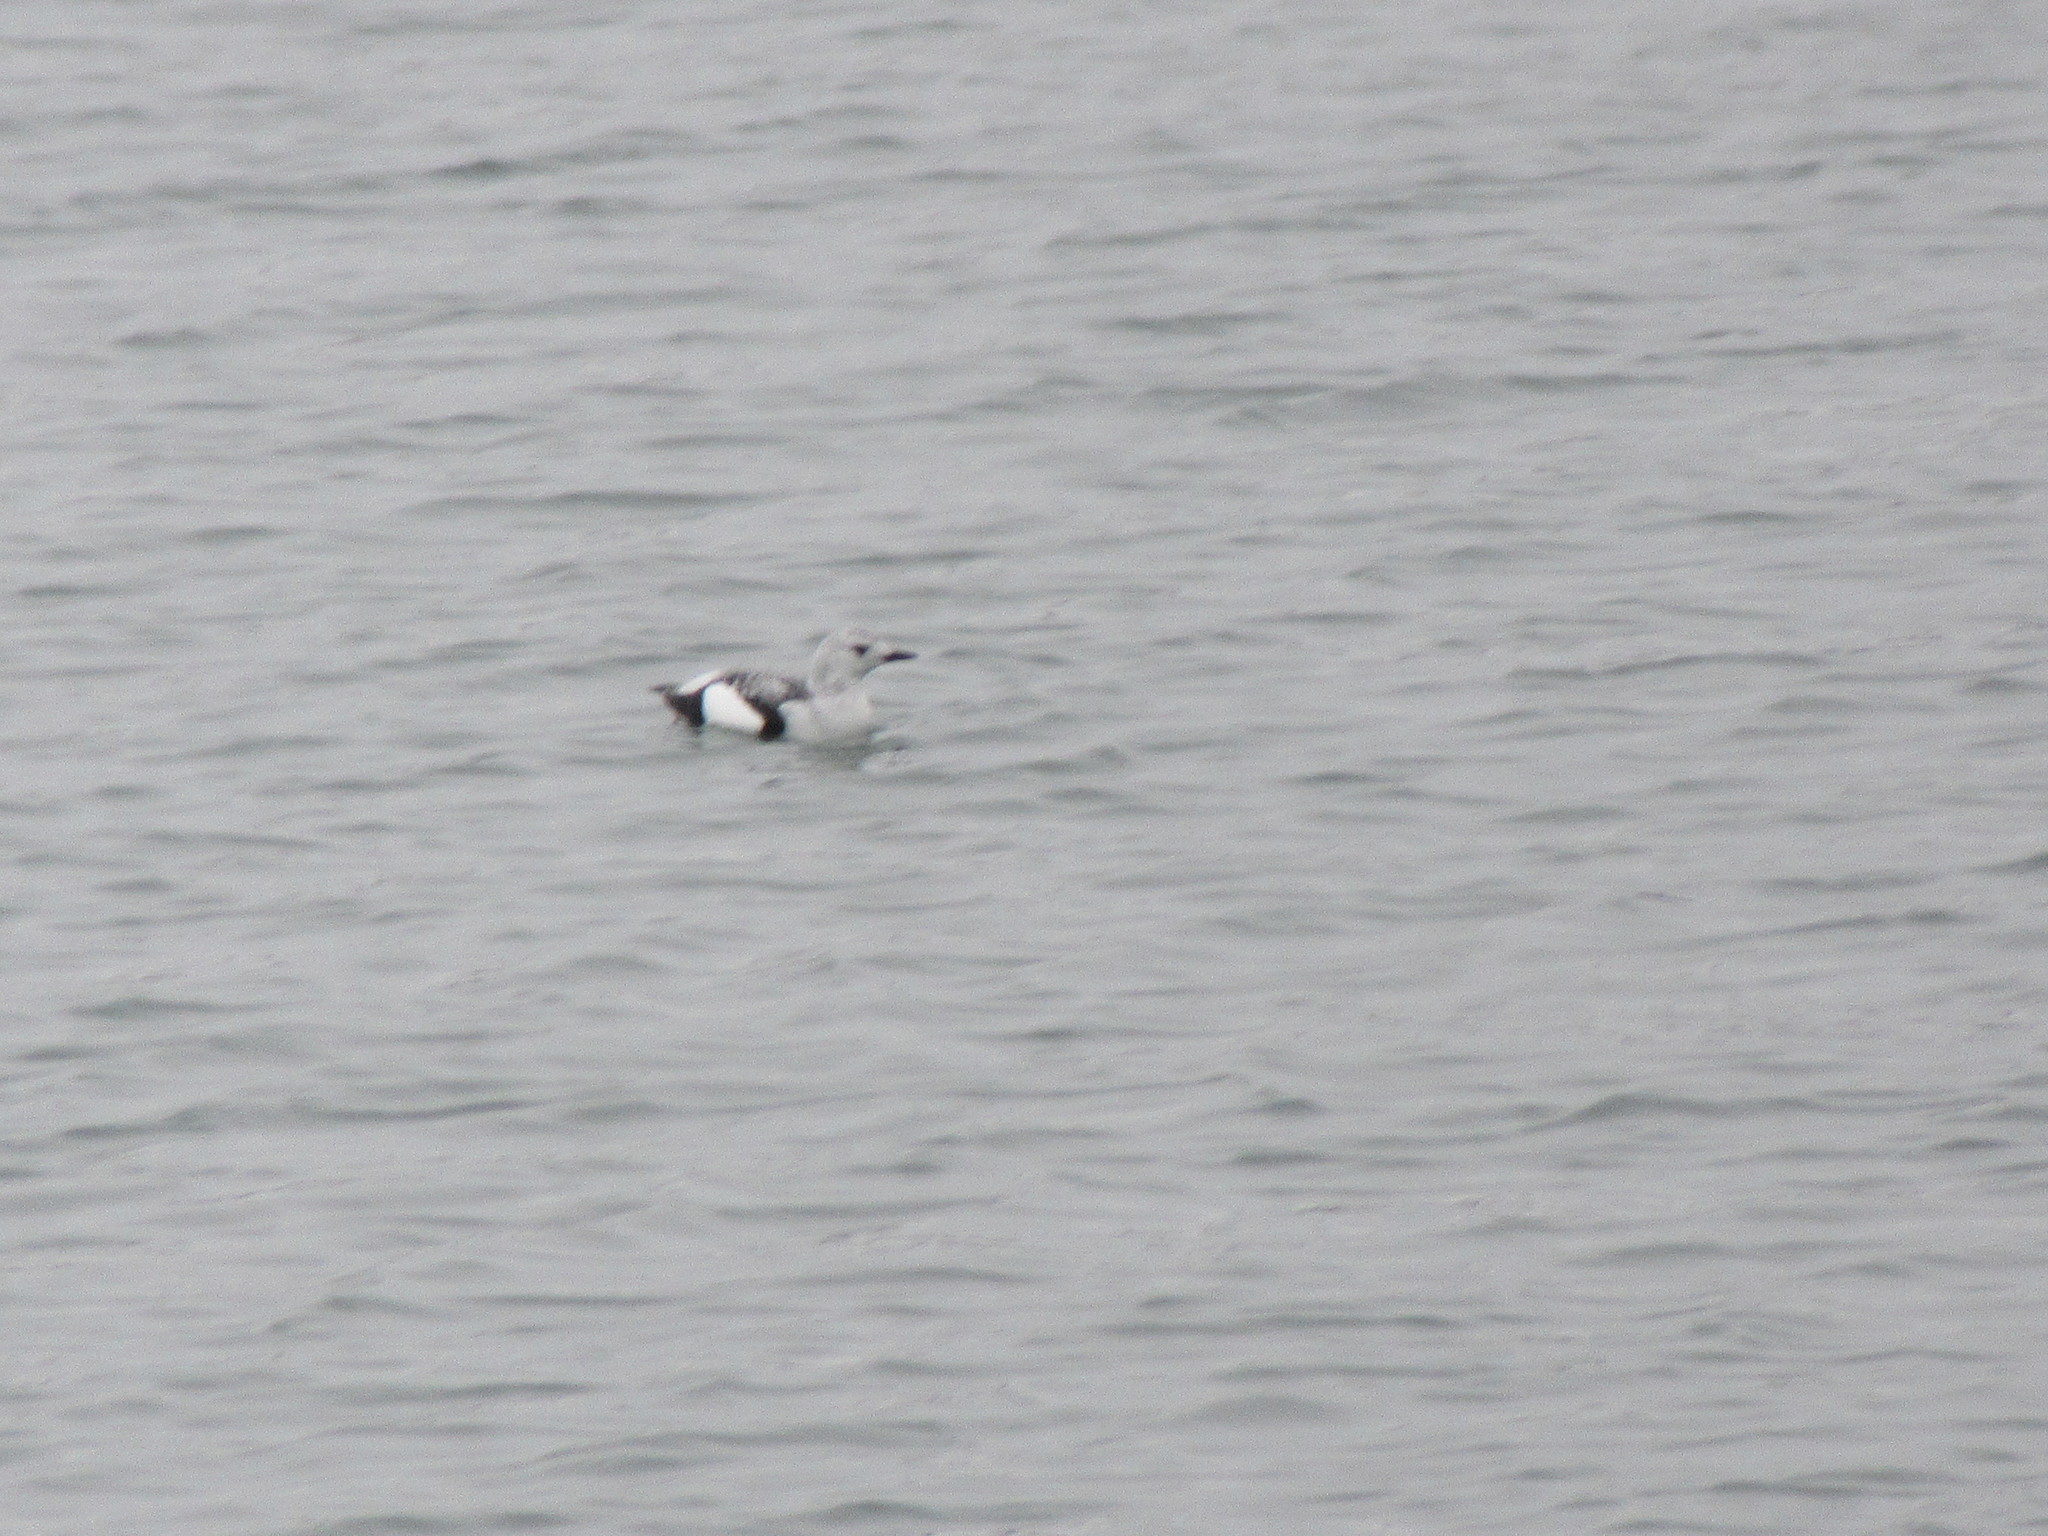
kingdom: Animalia
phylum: Chordata
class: Aves
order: Charadriiformes
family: Alcidae
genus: Cepphus
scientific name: Cepphus grylle
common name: Black guillemot
